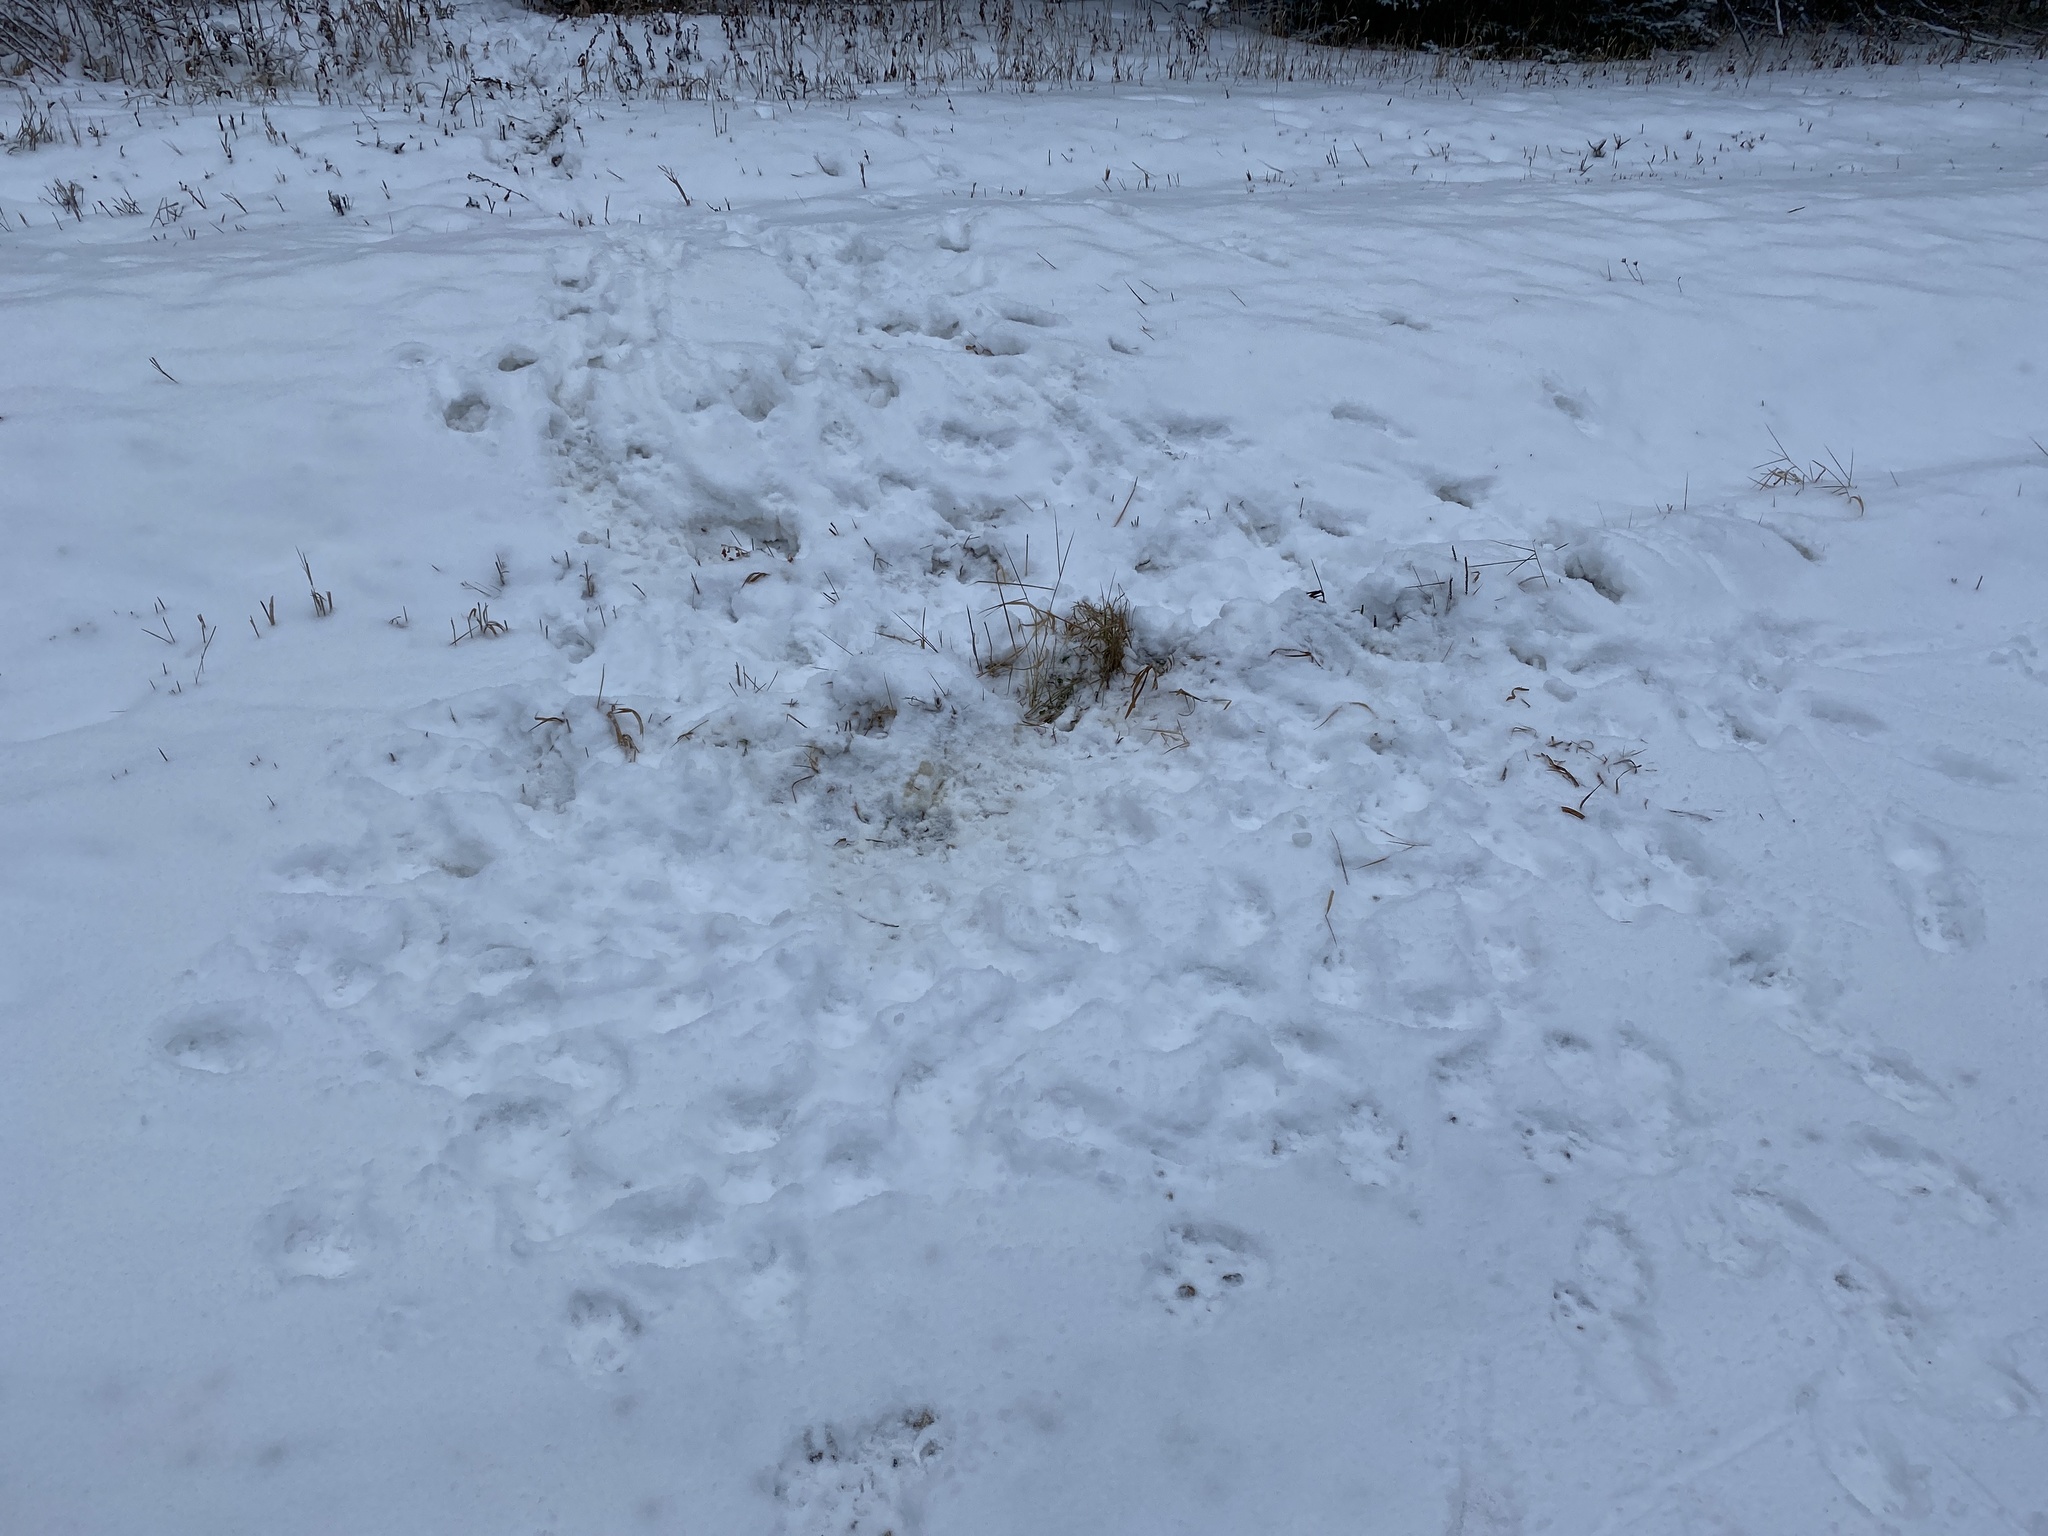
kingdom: Animalia
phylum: Chordata
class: Mammalia
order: Carnivora
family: Canidae
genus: Canis
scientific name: Canis lupus
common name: Gray wolf
